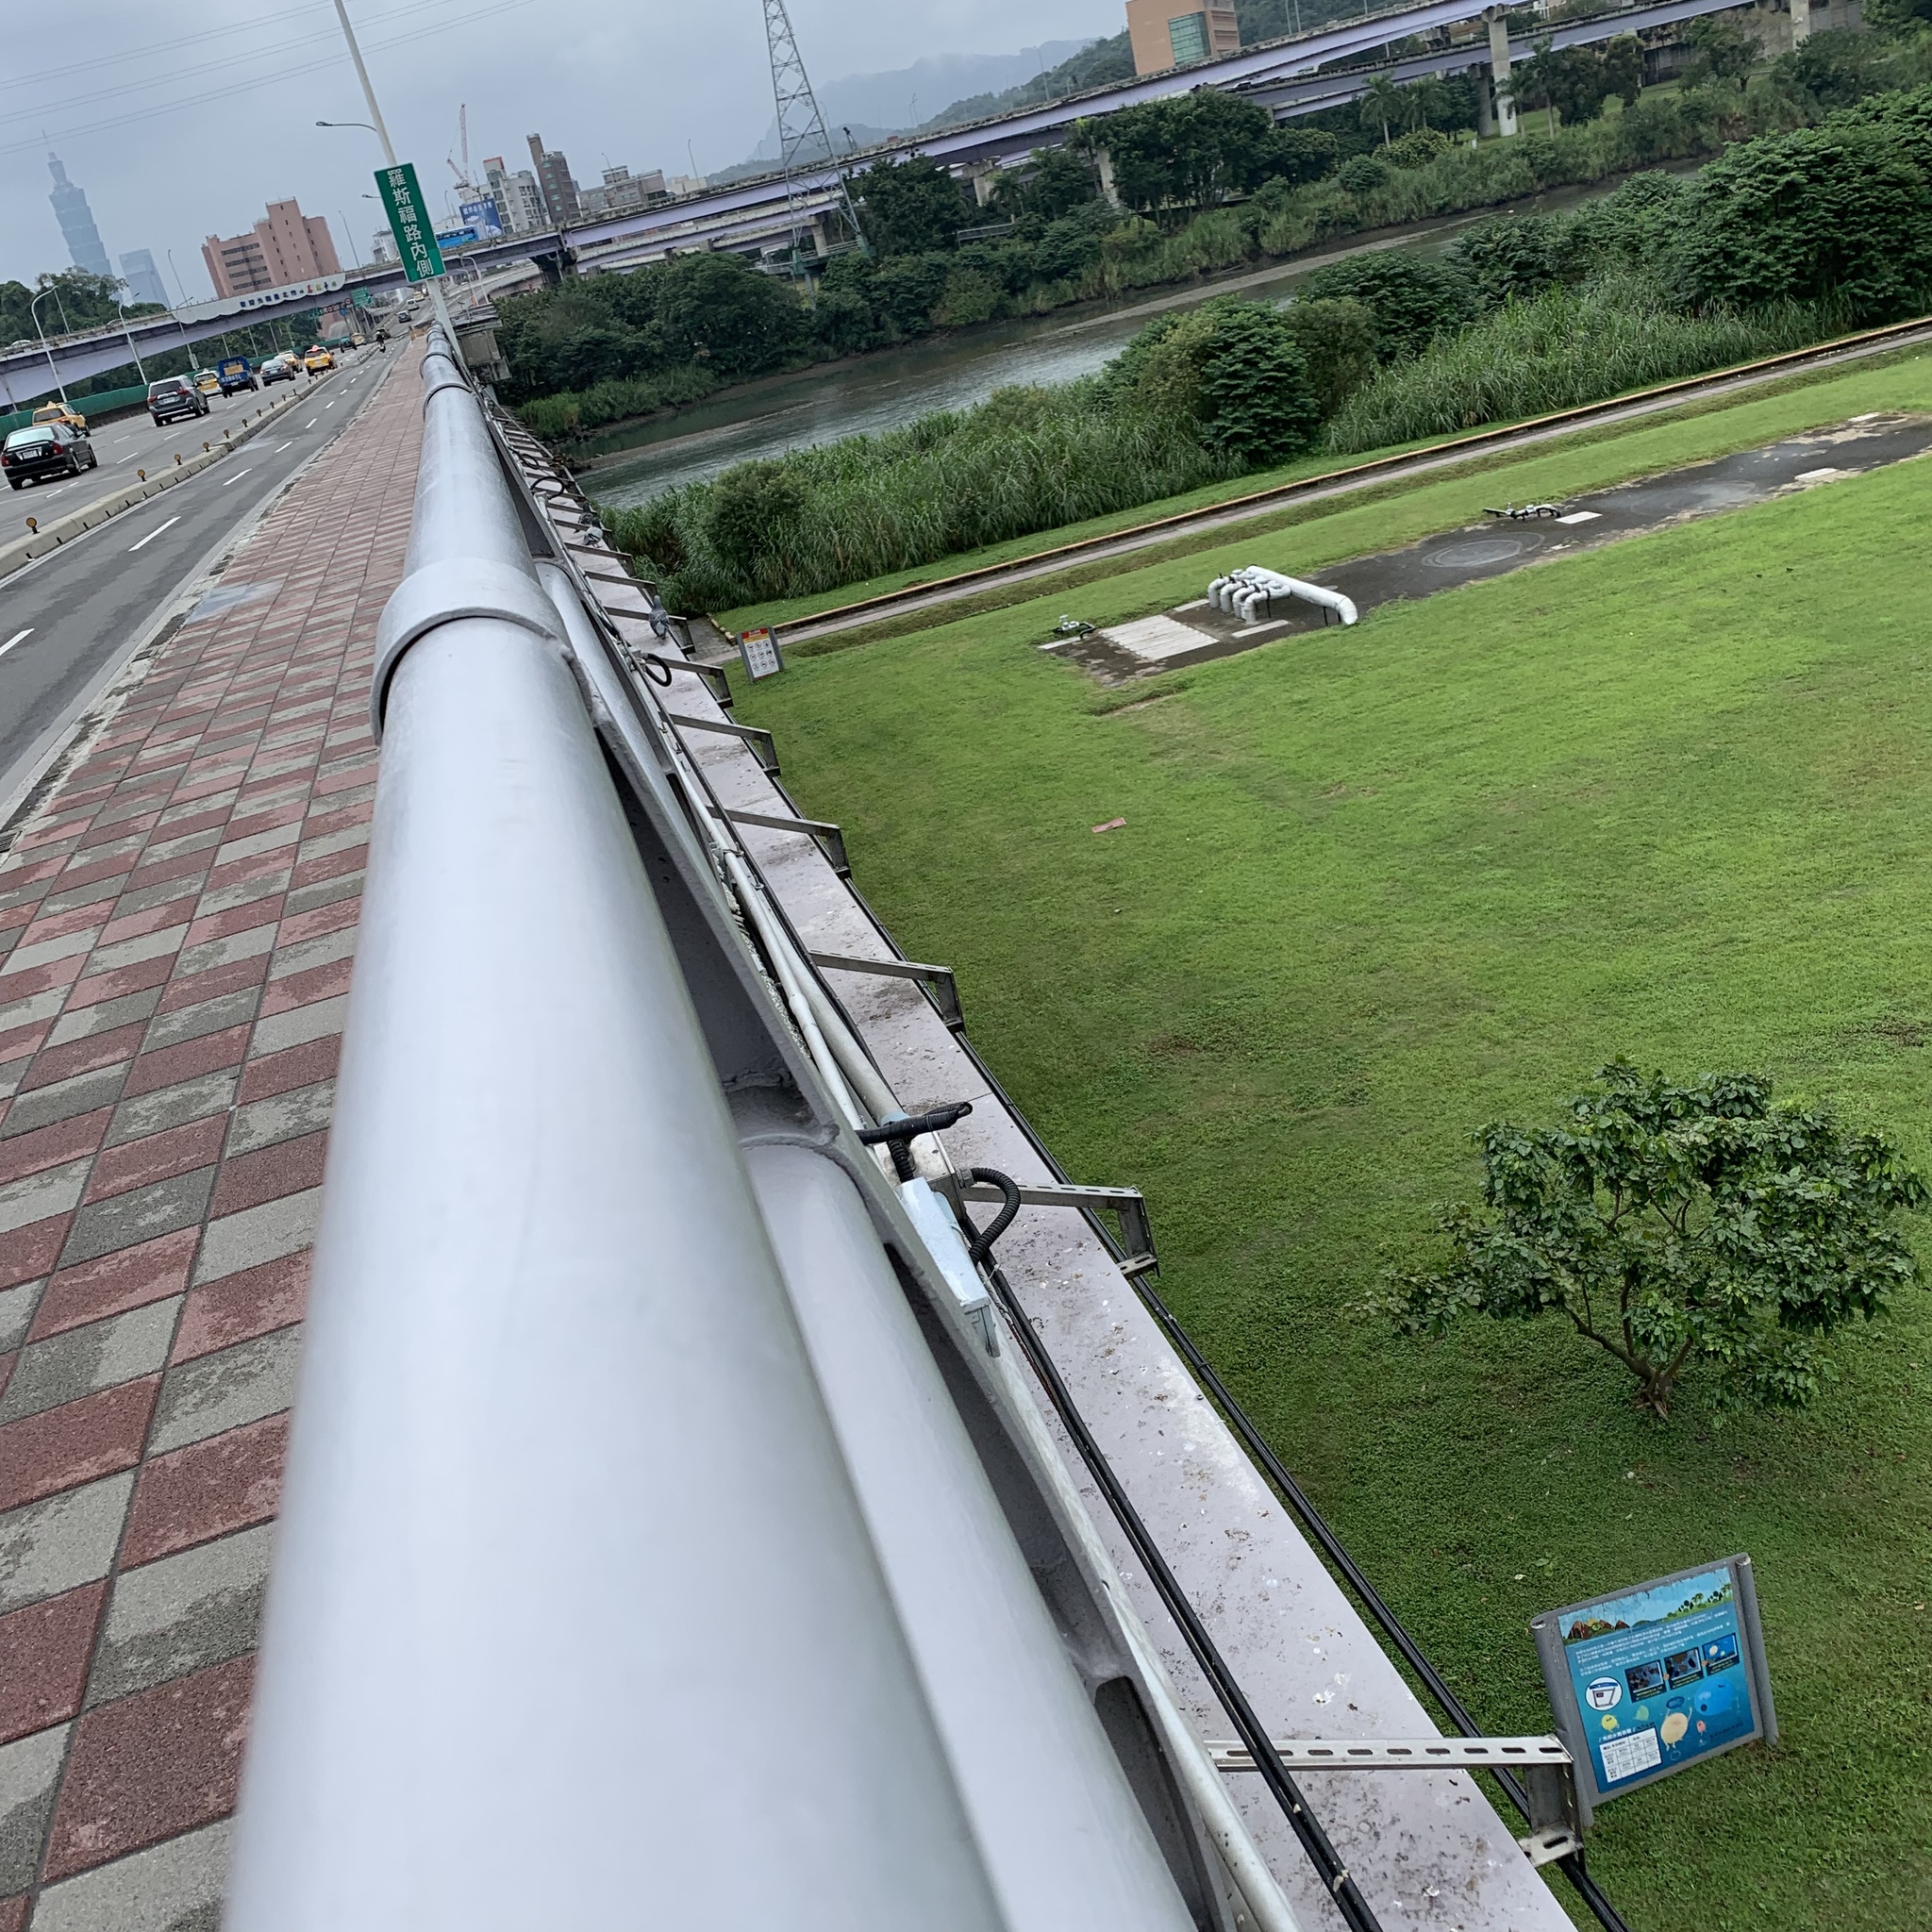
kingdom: Animalia
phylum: Chordata
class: Aves
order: Columbiformes
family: Columbidae
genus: Columba
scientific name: Columba livia
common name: Rock pigeon
